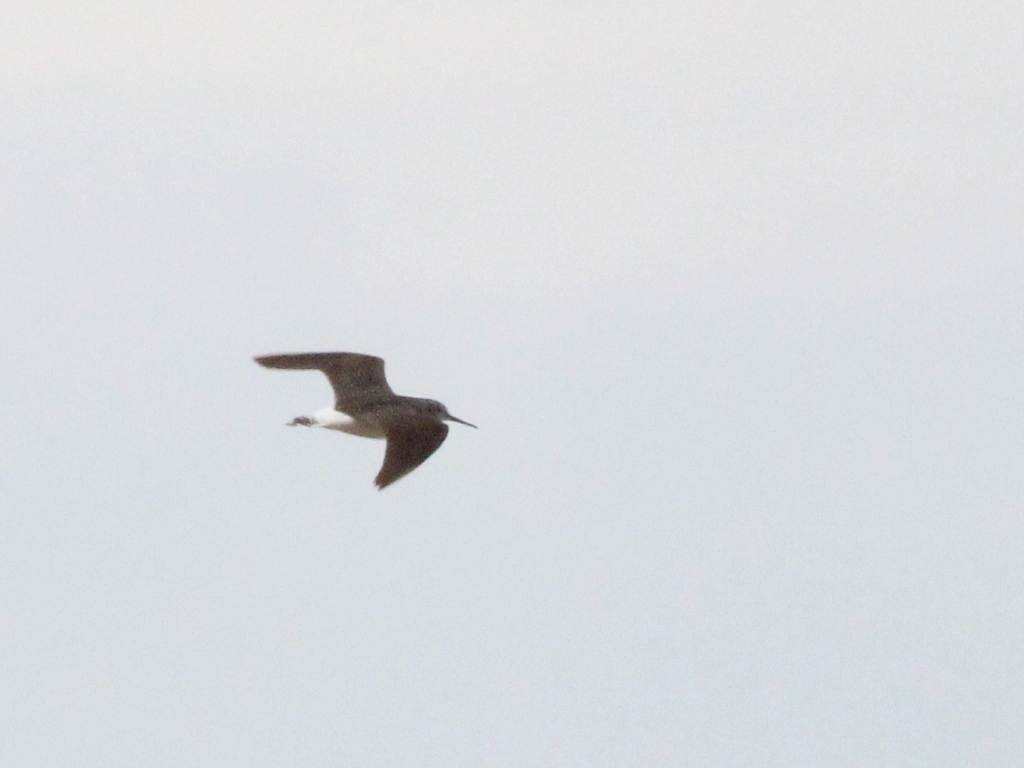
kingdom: Animalia
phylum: Chordata
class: Aves
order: Charadriiformes
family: Scolopacidae
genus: Tringa
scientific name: Tringa ochropus
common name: Green sandpiper
